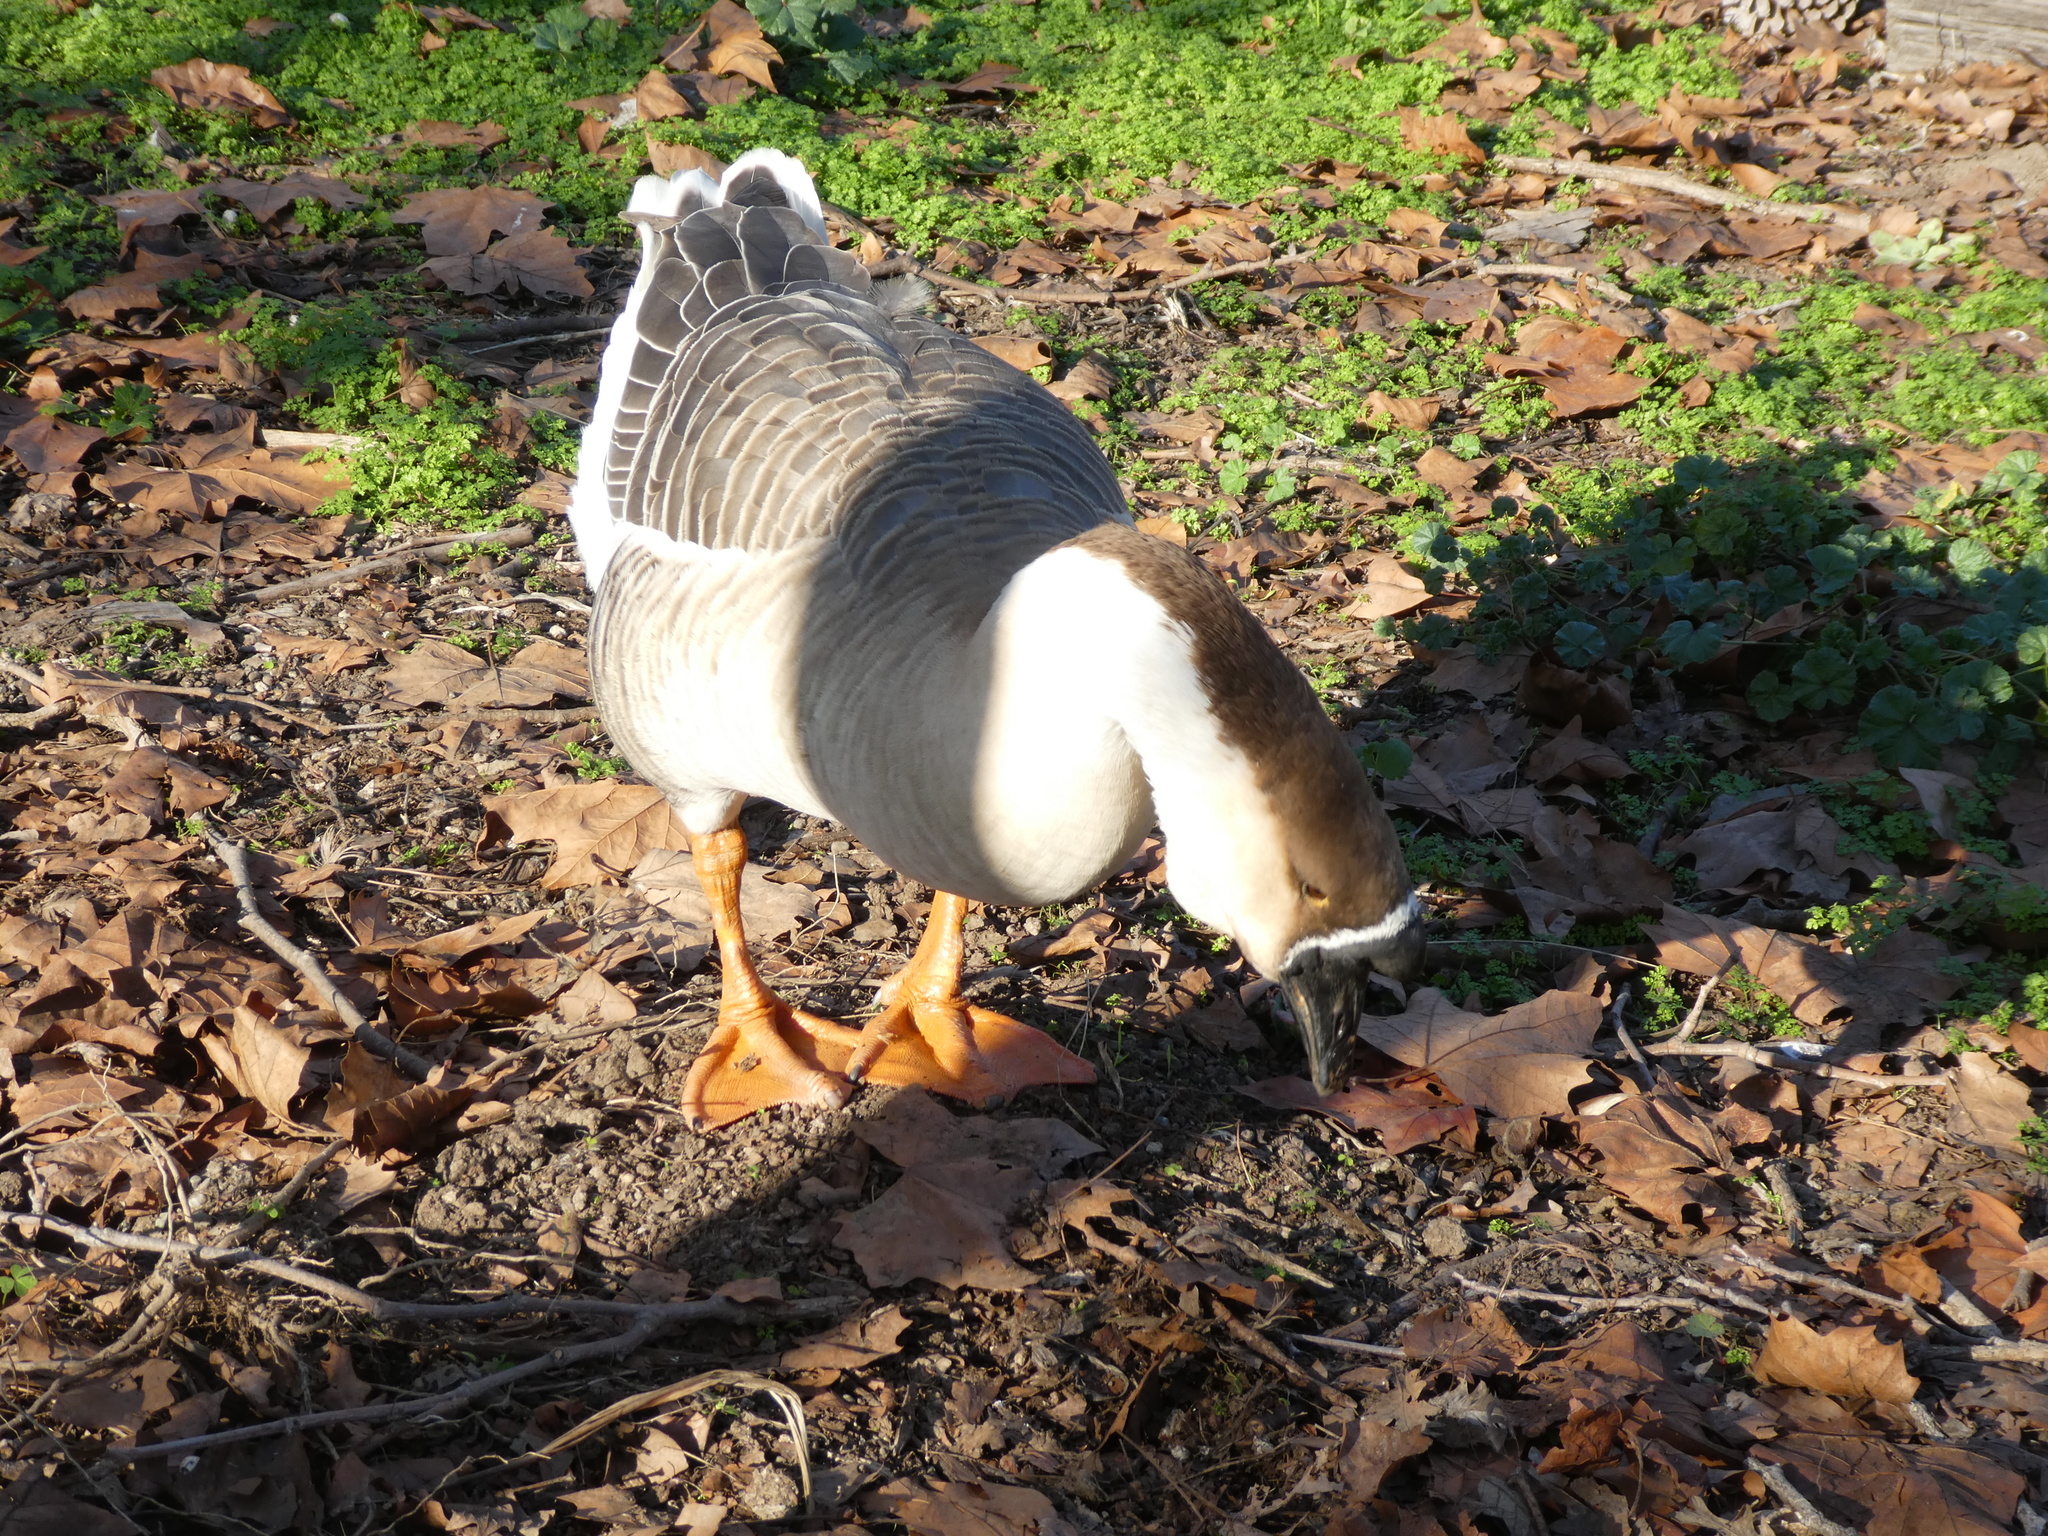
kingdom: Animalia
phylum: Chordata
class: Aves
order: Anseriformes
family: Anatidae
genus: Anser
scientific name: Anser cygnoides
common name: Swan goose
